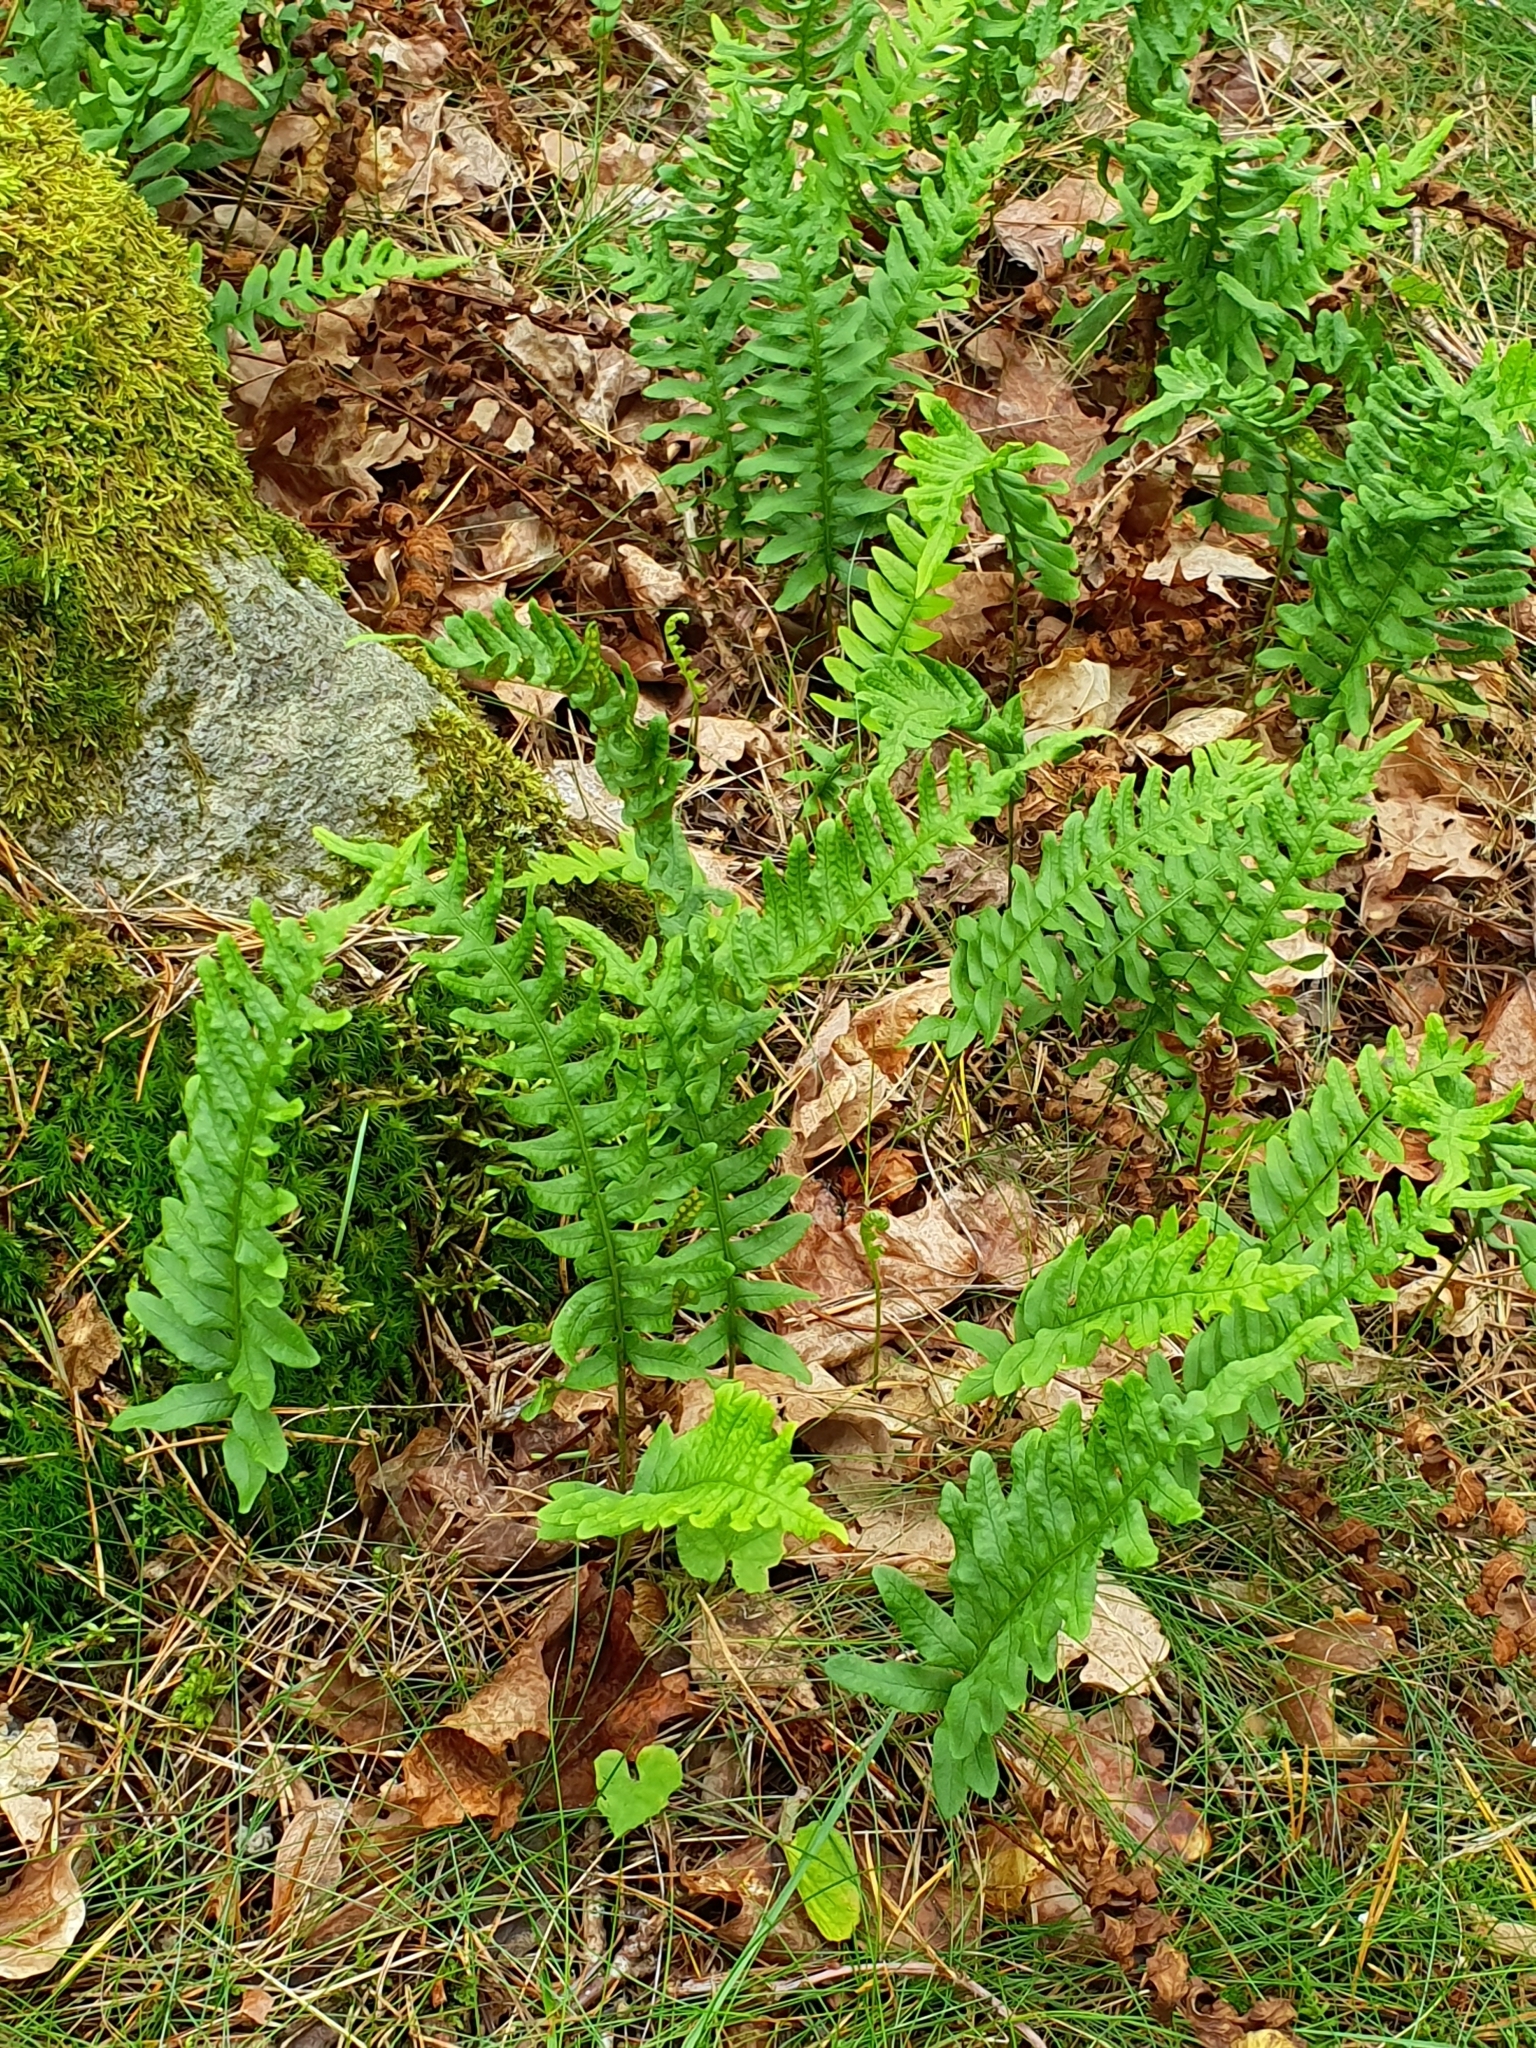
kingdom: Plantae
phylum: Tracheophyta
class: Polypodiopsida
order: Polypodiales
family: Polypodiaceae
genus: Polypodium
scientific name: Polypodium vulgare
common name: Common polypody
